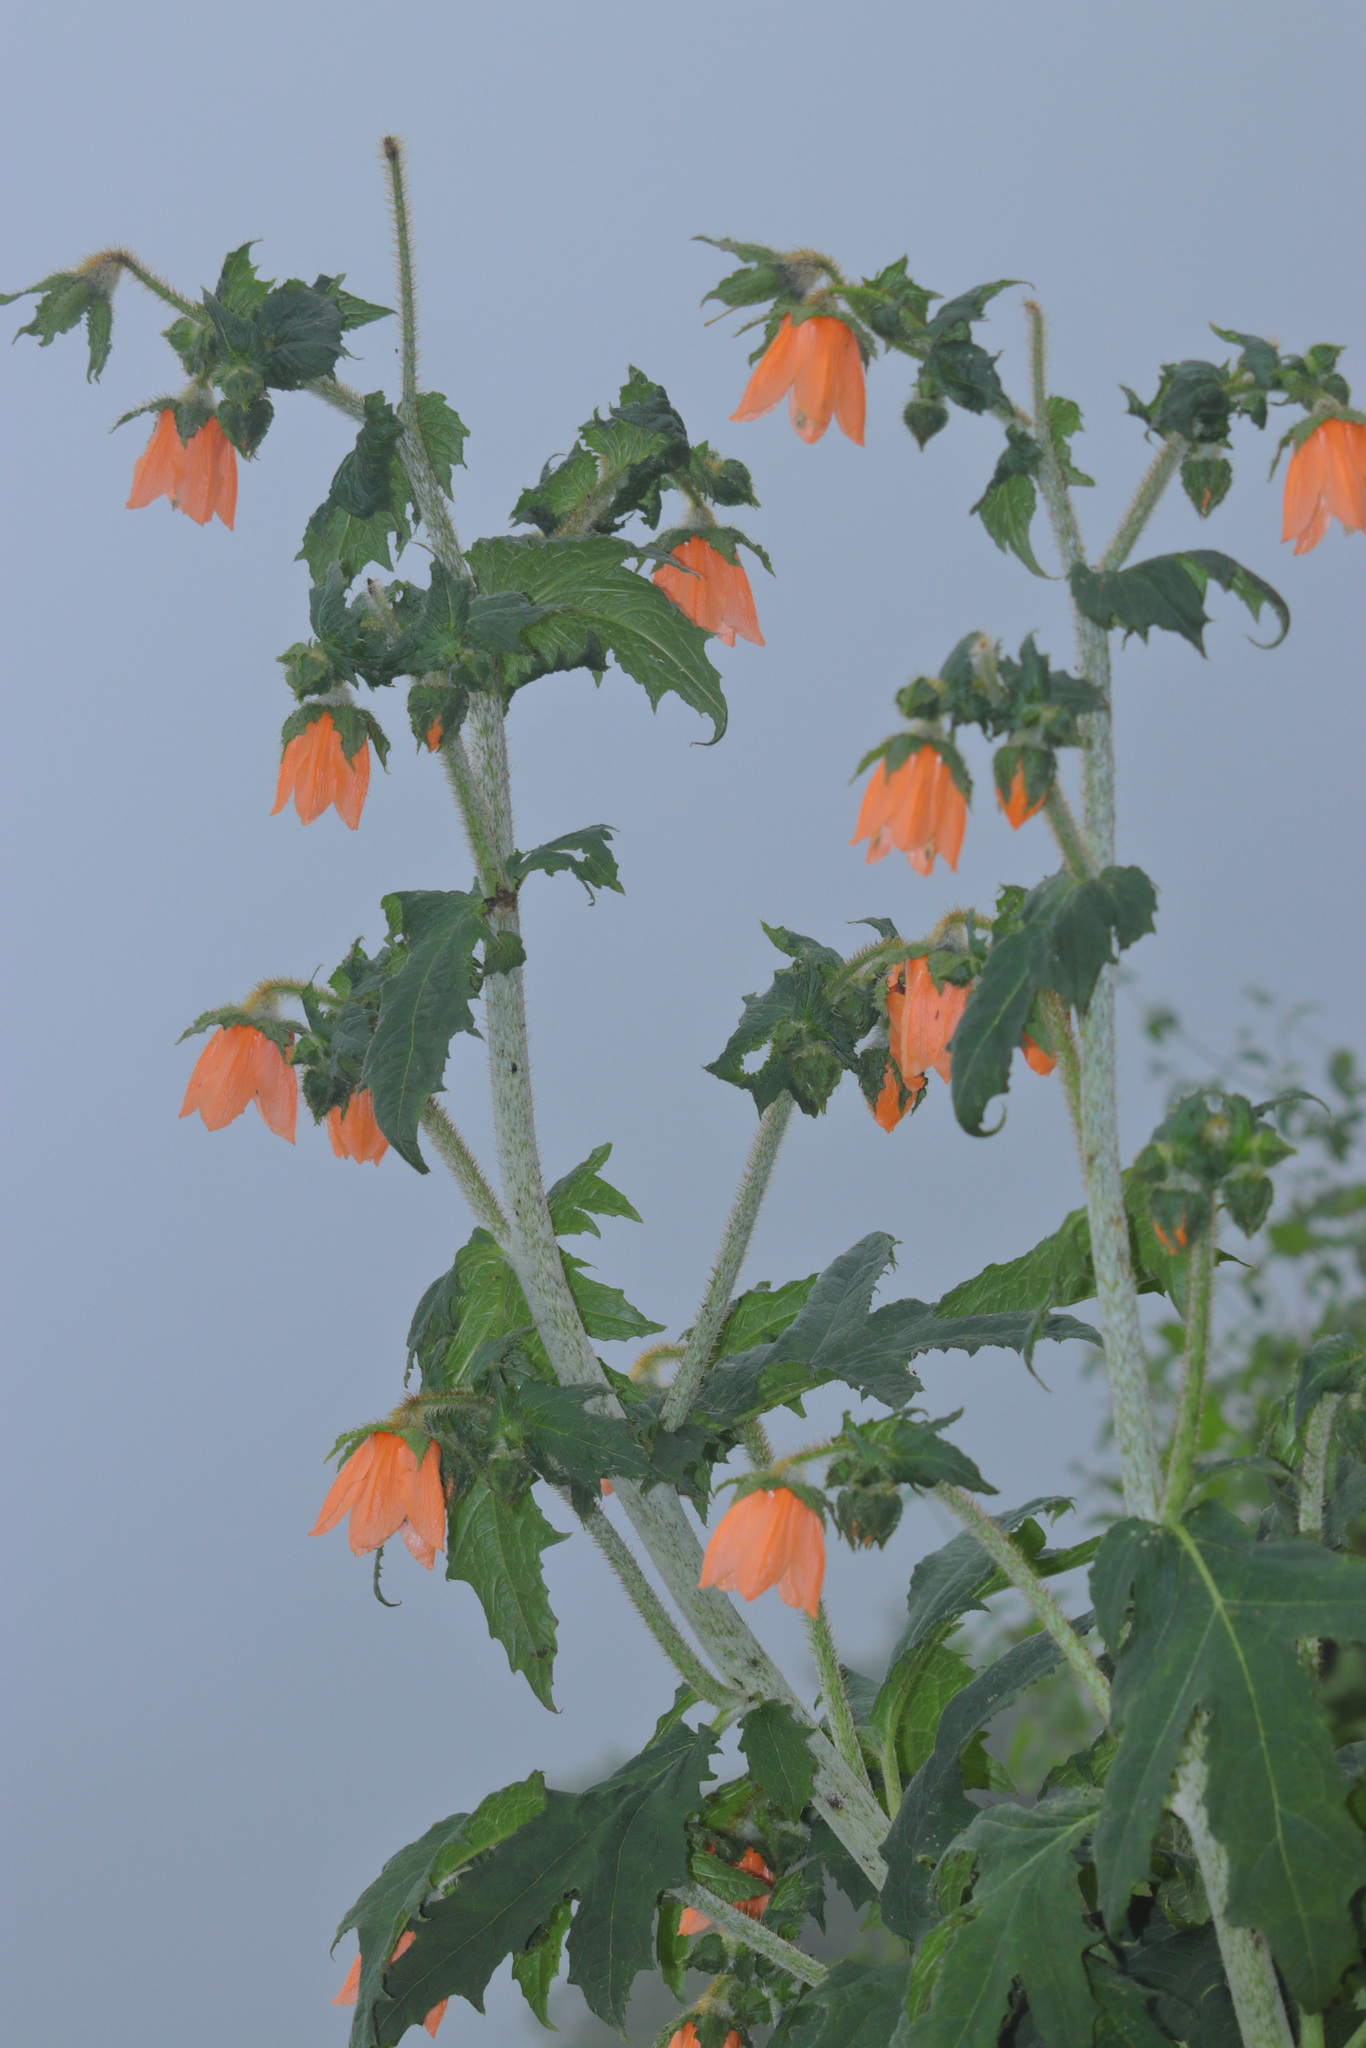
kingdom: Plantae
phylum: Tracheophyta
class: Magnoliopsida
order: Cornales
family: Loasaceae
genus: Nasa
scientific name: Nasa macrophylla
